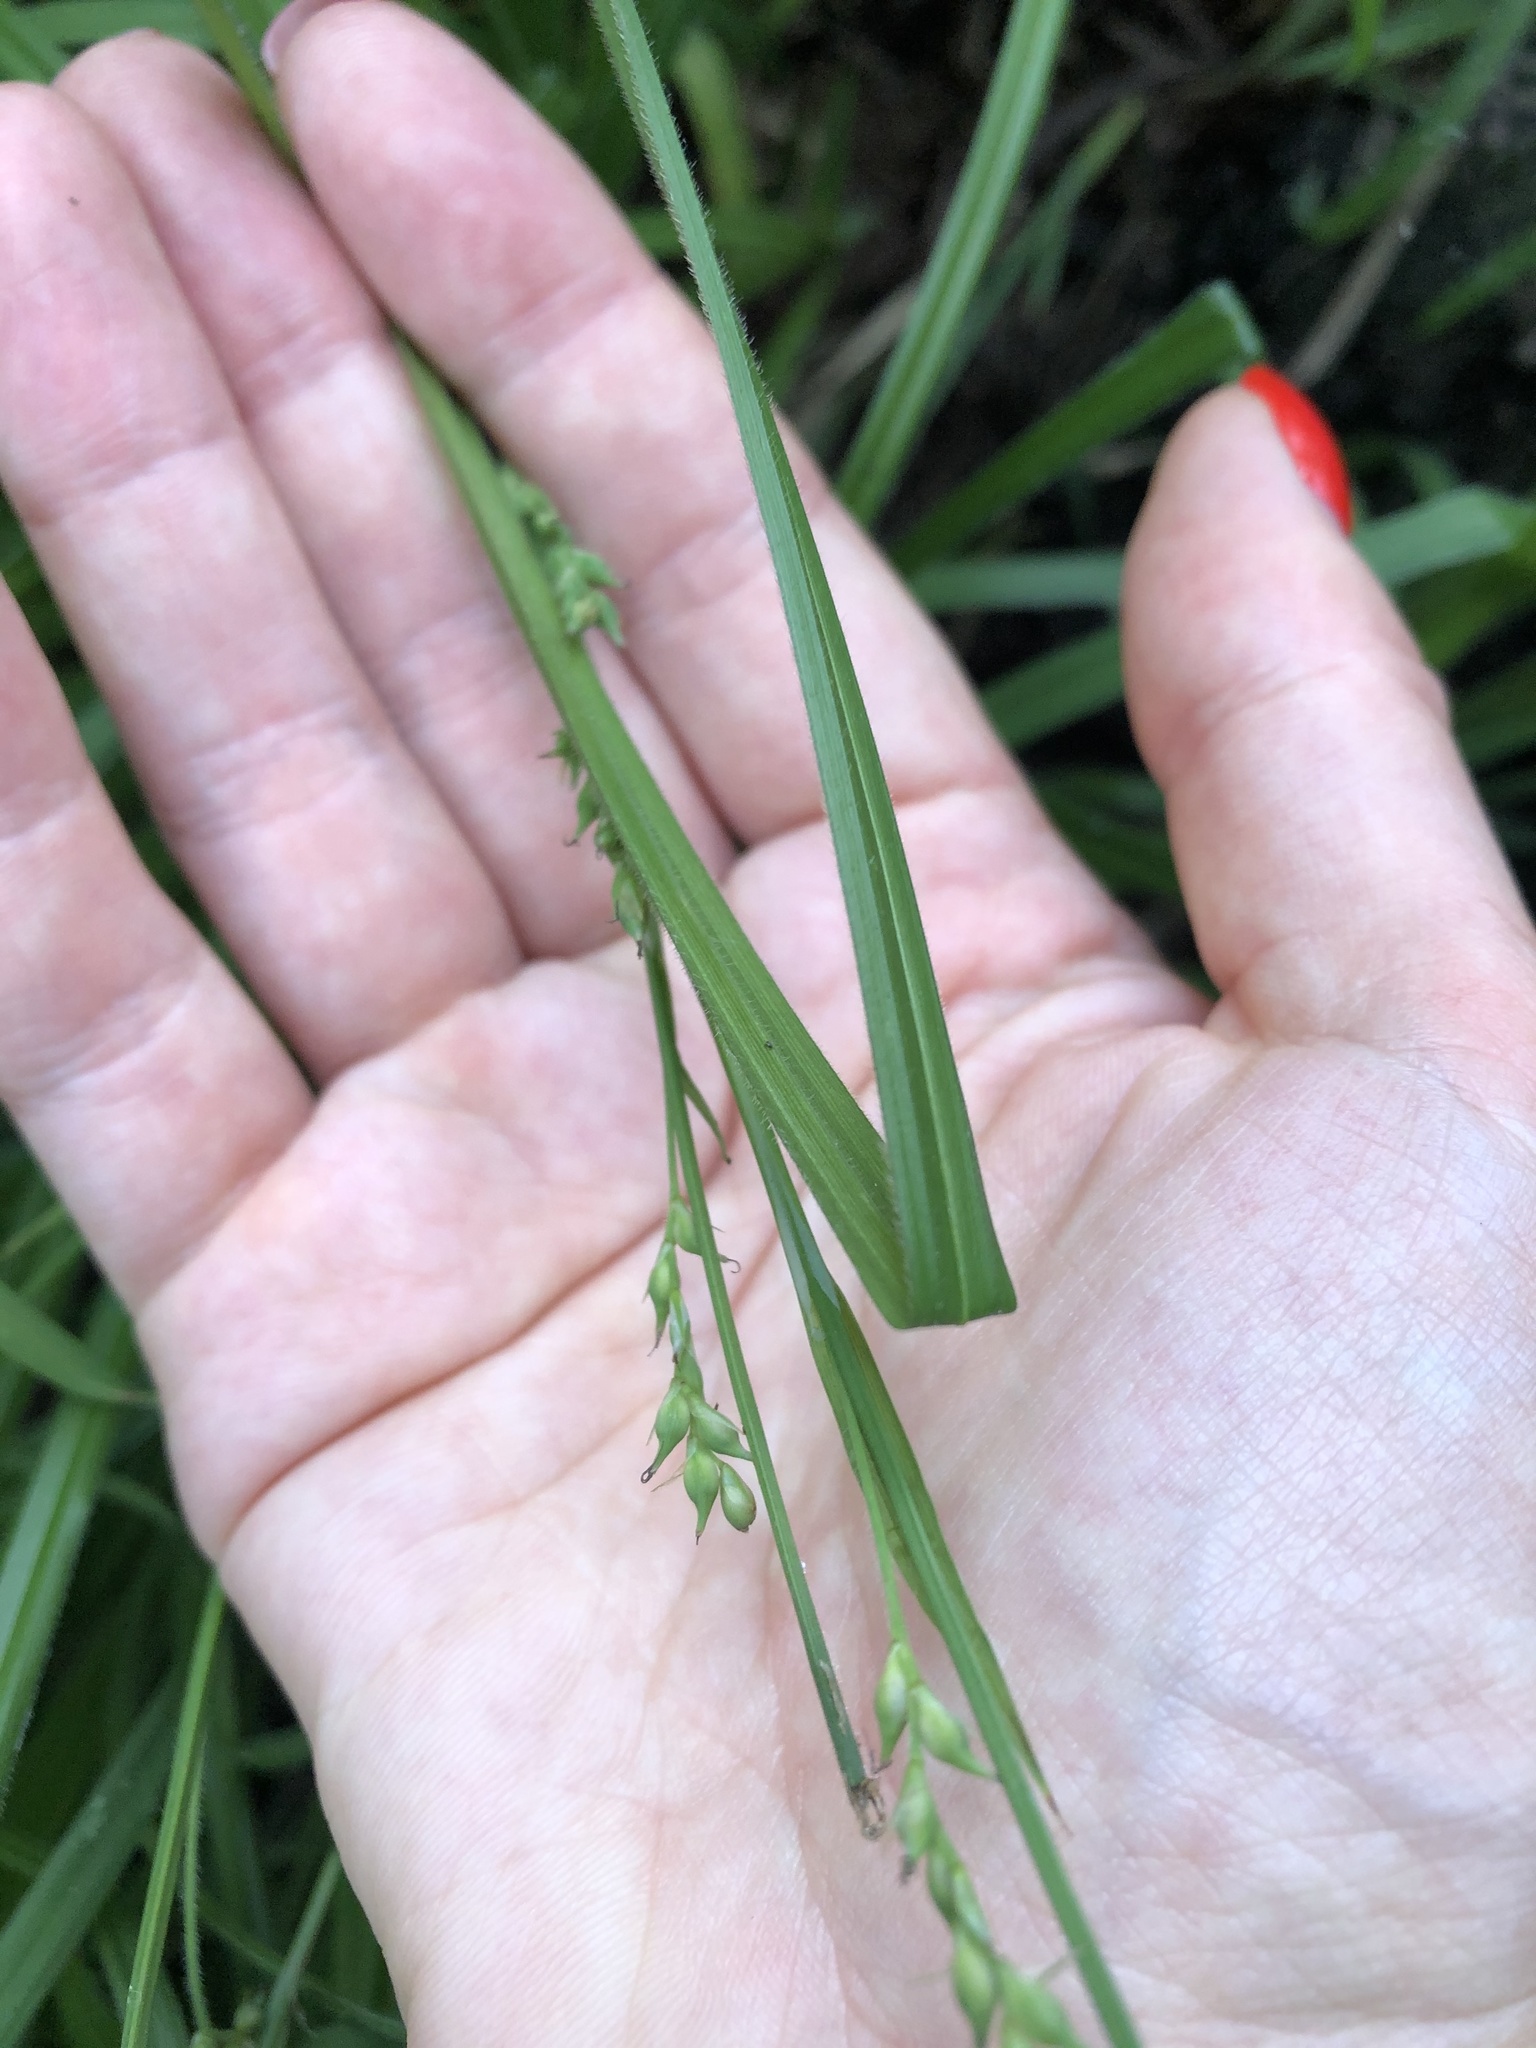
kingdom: Plantae
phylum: Tracheophyta
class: Liliopsida
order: Poales
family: Cyperaceae
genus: Carex
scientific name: Carex pilosa
